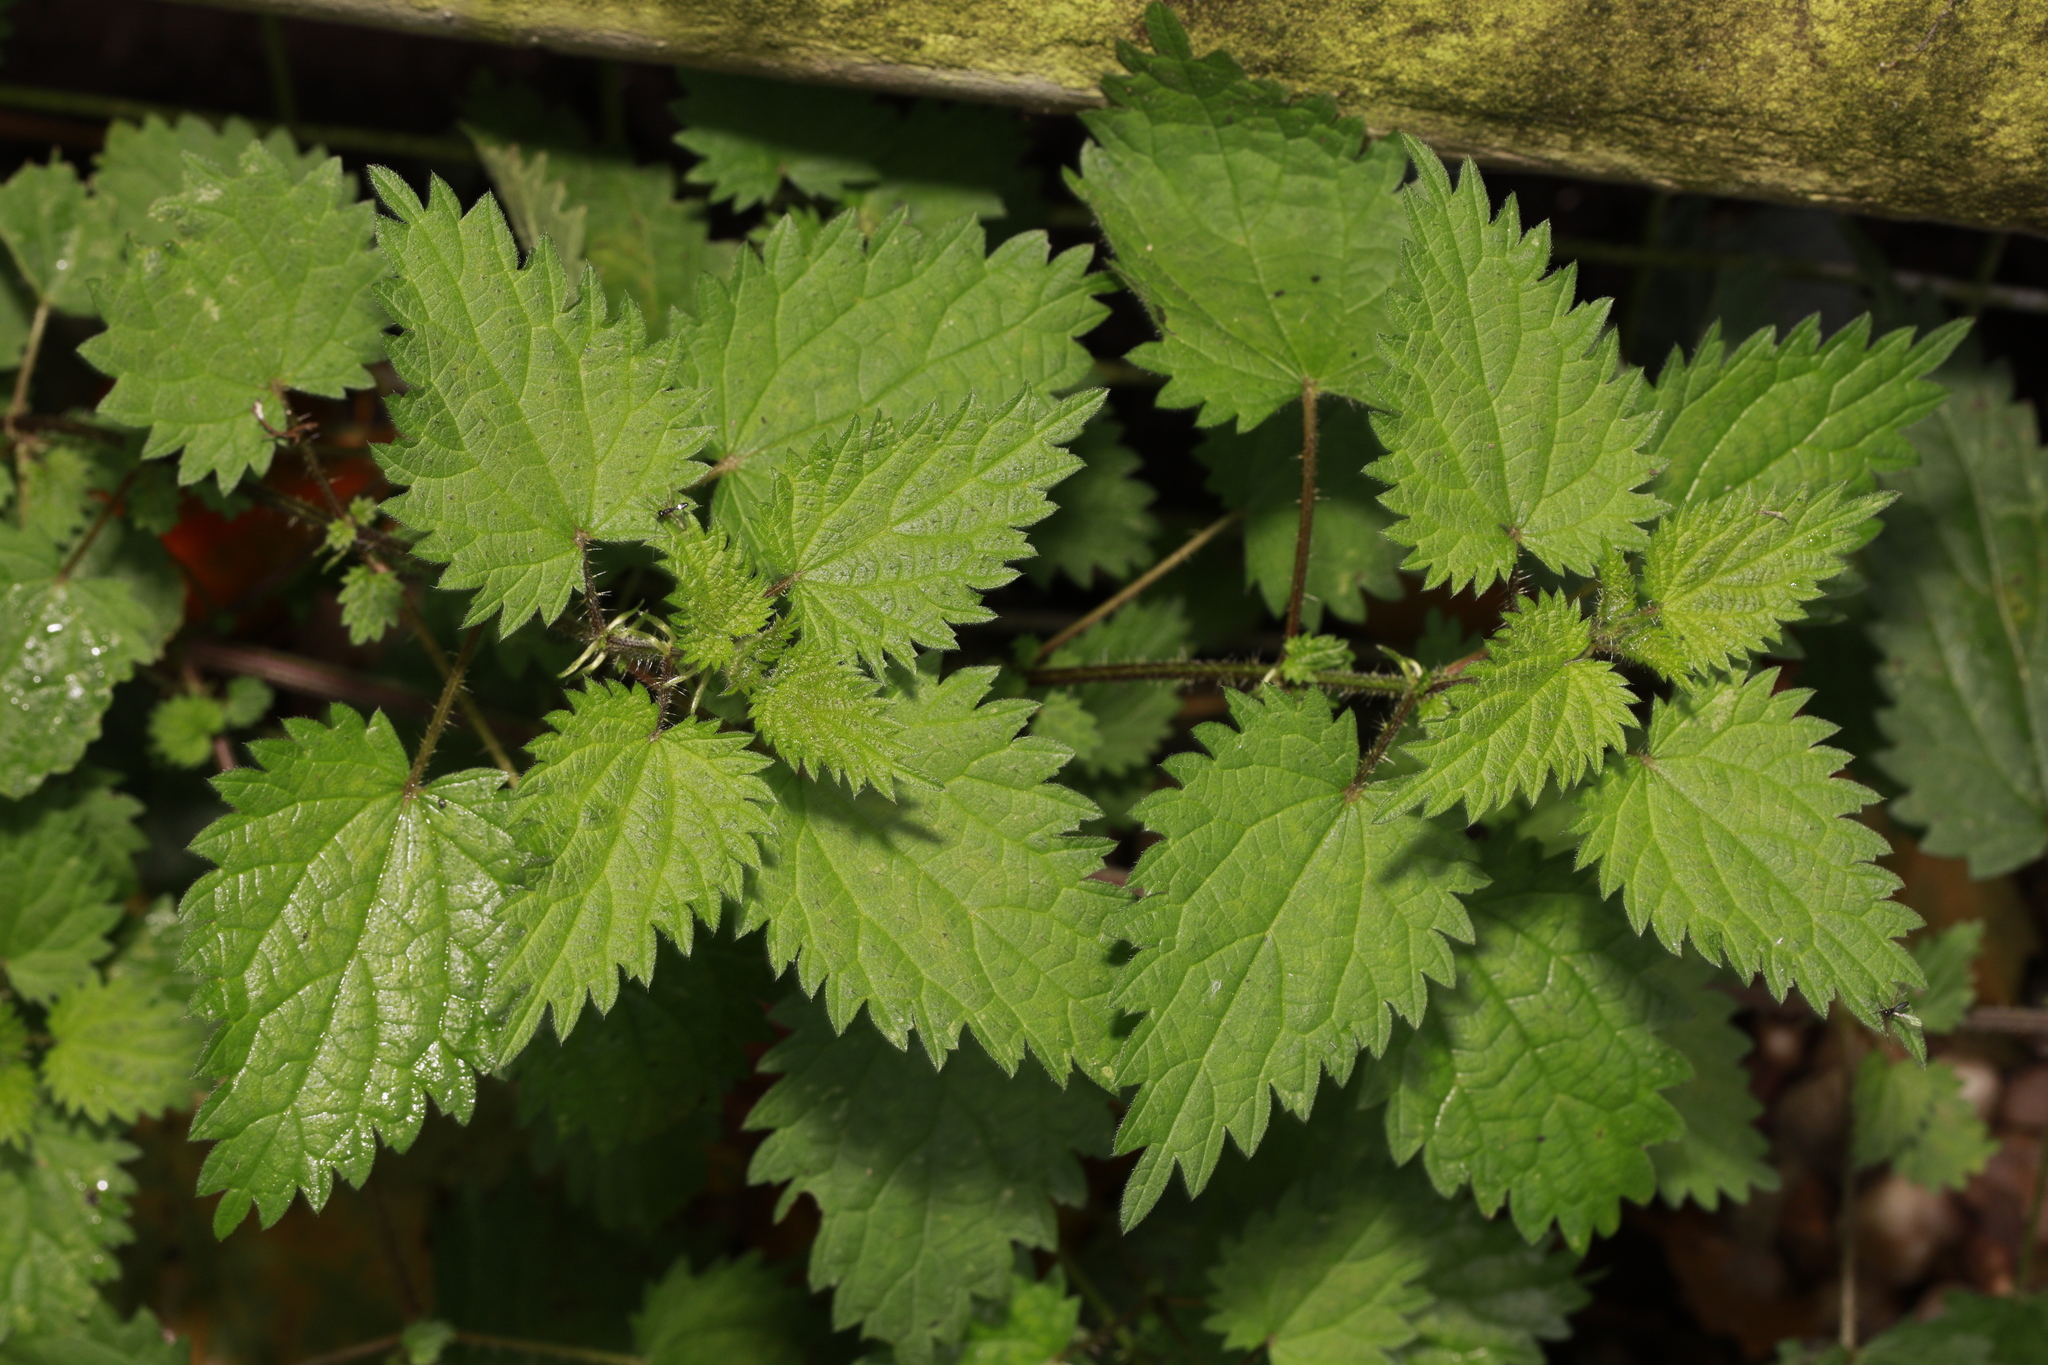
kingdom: Plantae
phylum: Tracheophyta
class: Magnoliopsida
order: Rosales
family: Urticaceae
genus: Urtica
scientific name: Urtica dioica
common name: Common nettle
